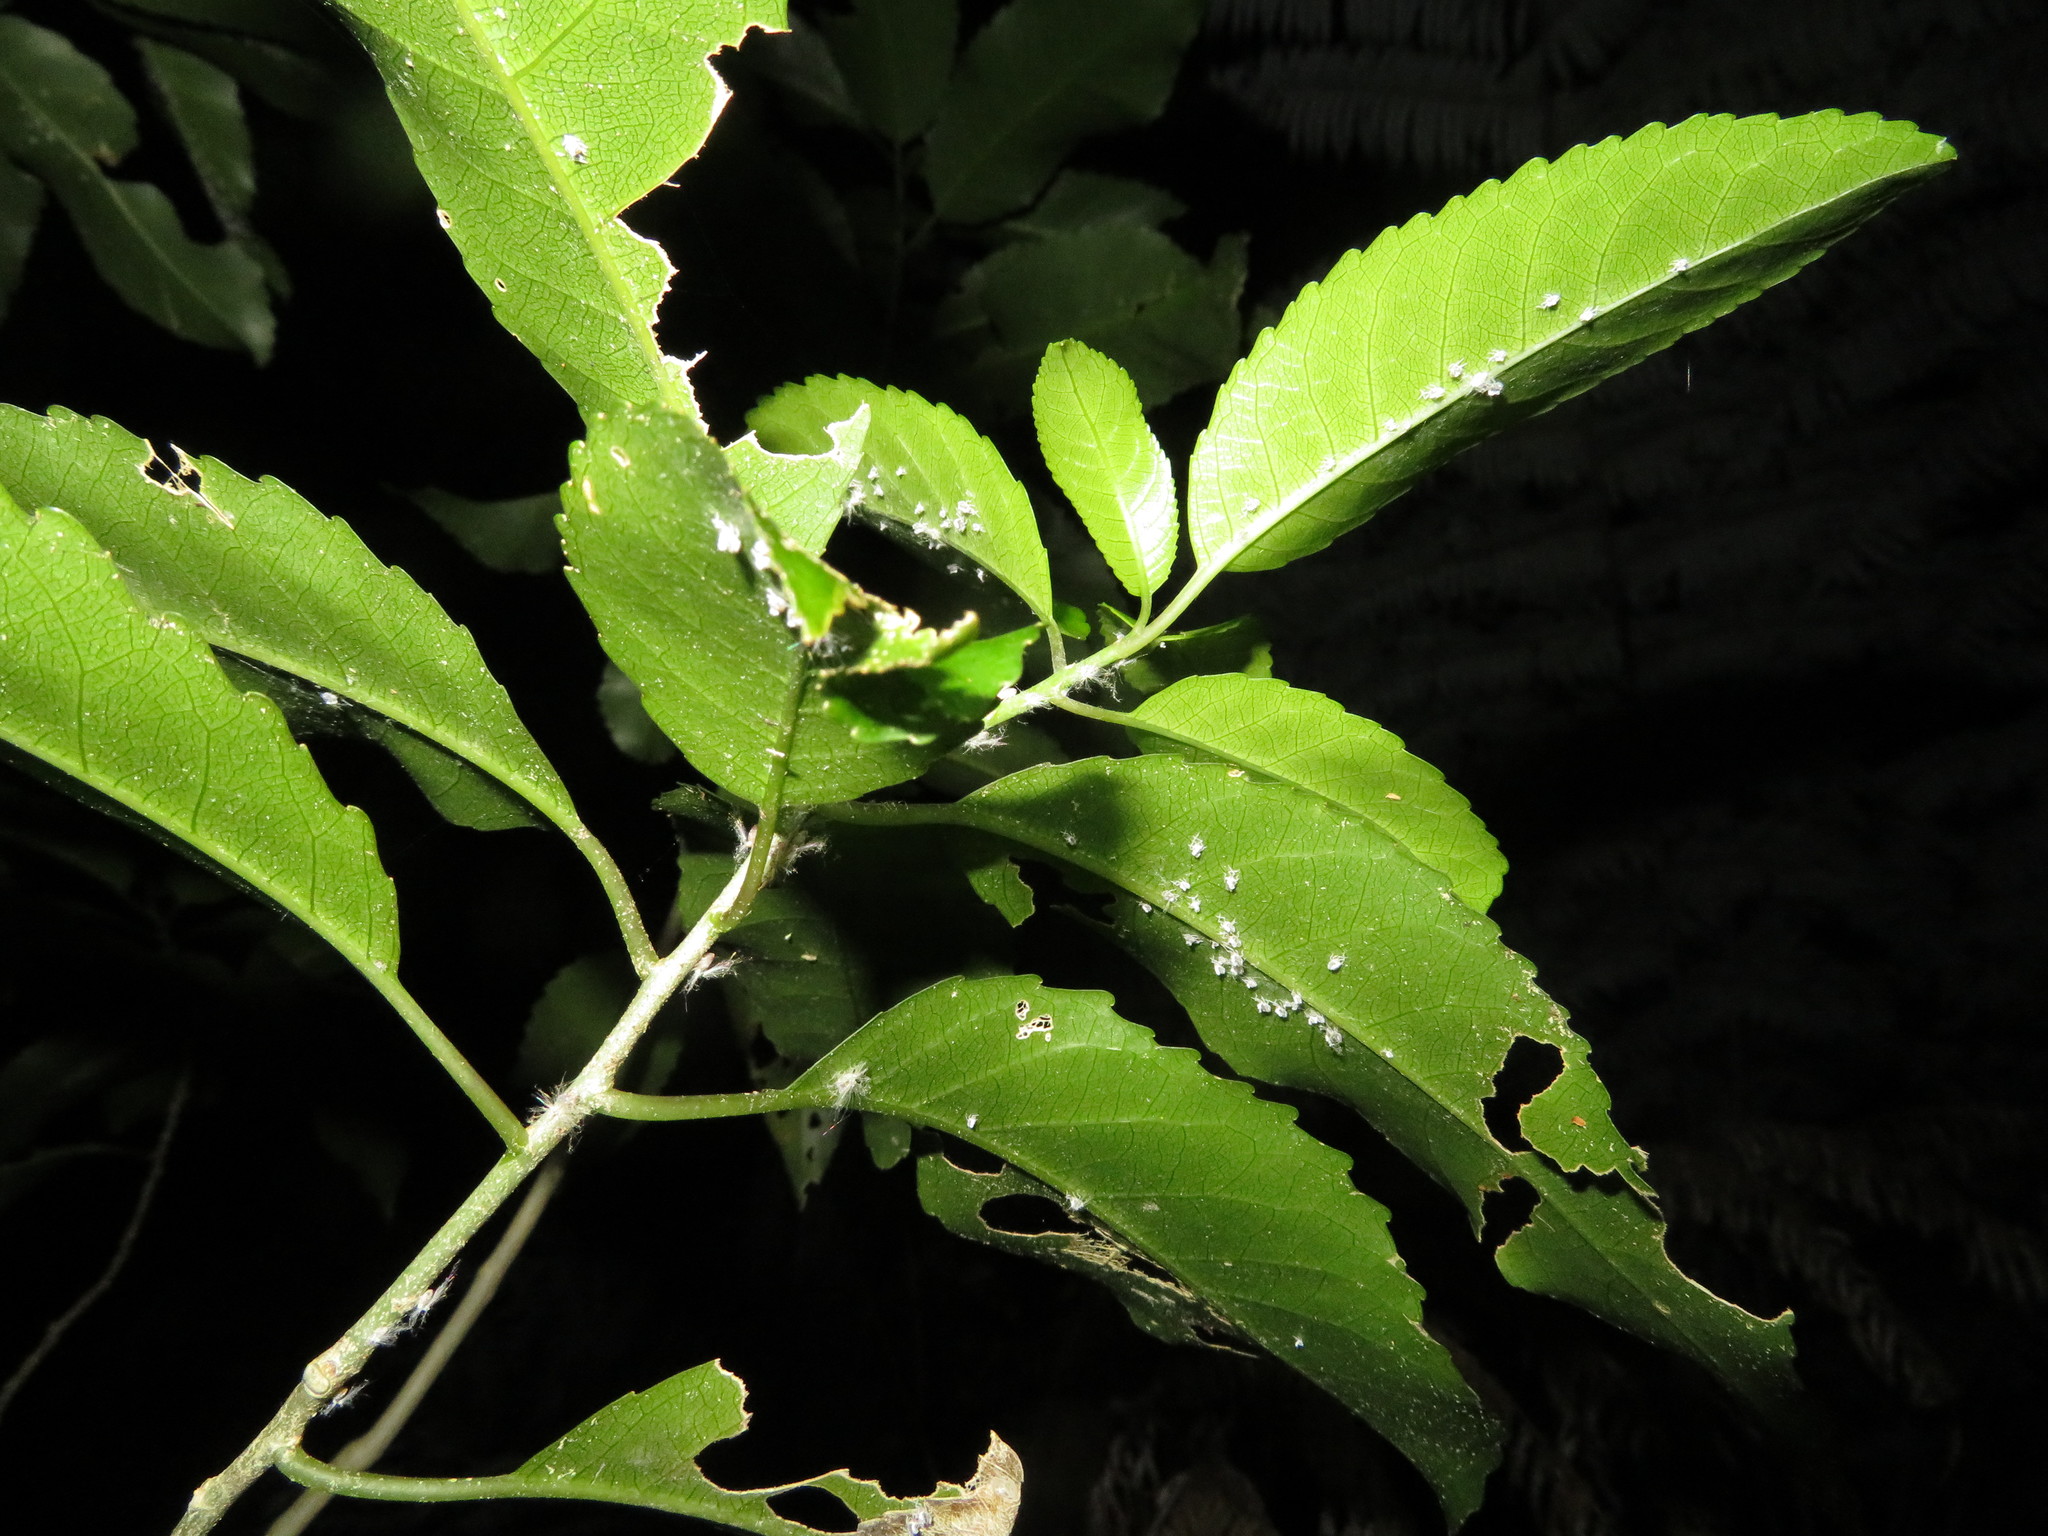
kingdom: Animalia
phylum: Arthropoda
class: Insecta
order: Hemiptera
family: Ricaniidae
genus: Scolypopa
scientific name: Scolypopa australis
